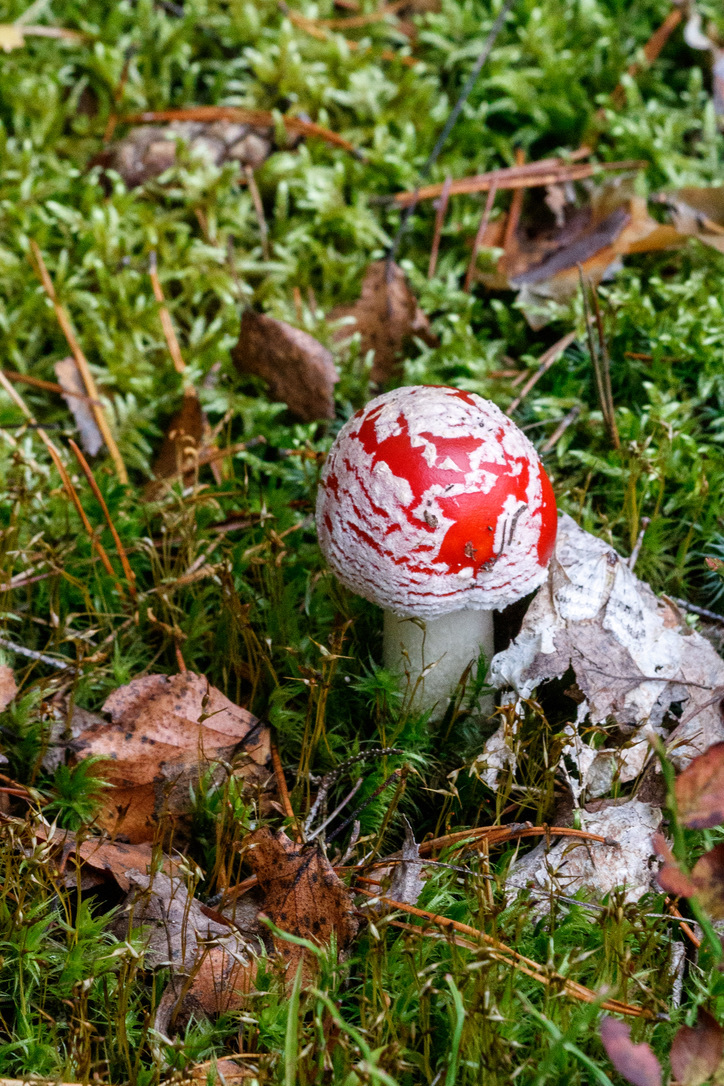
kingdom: Fungi
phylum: Basidiomycota
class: Agaricomycetes
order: Agaricales
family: Amanitaceae
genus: Amanita
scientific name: Amanita muscaria
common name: Fly agaric
